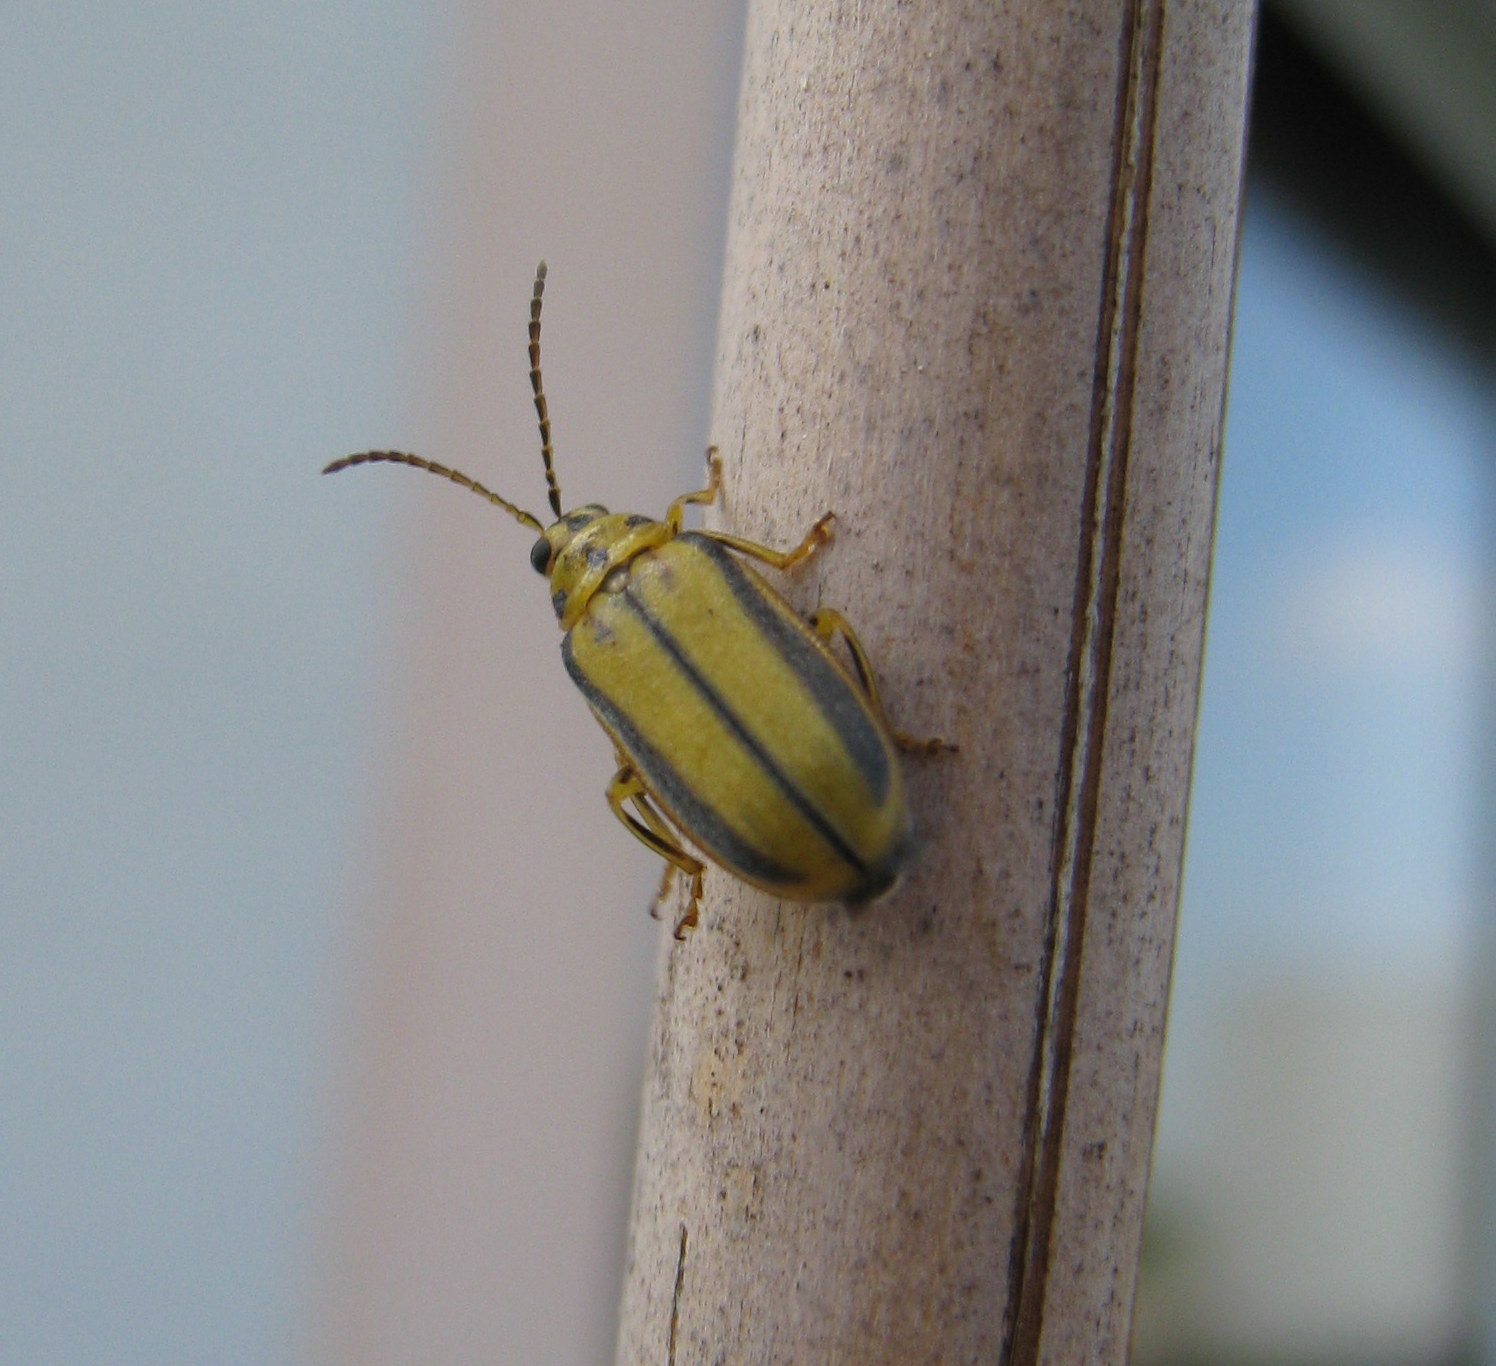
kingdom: Animalia
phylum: Arthropoda
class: Insecta
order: Coleoptera
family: Chrysomelidae
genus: Xanthogaleruca
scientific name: Xanthogaleruca luteola
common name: Elm leaf beetle
